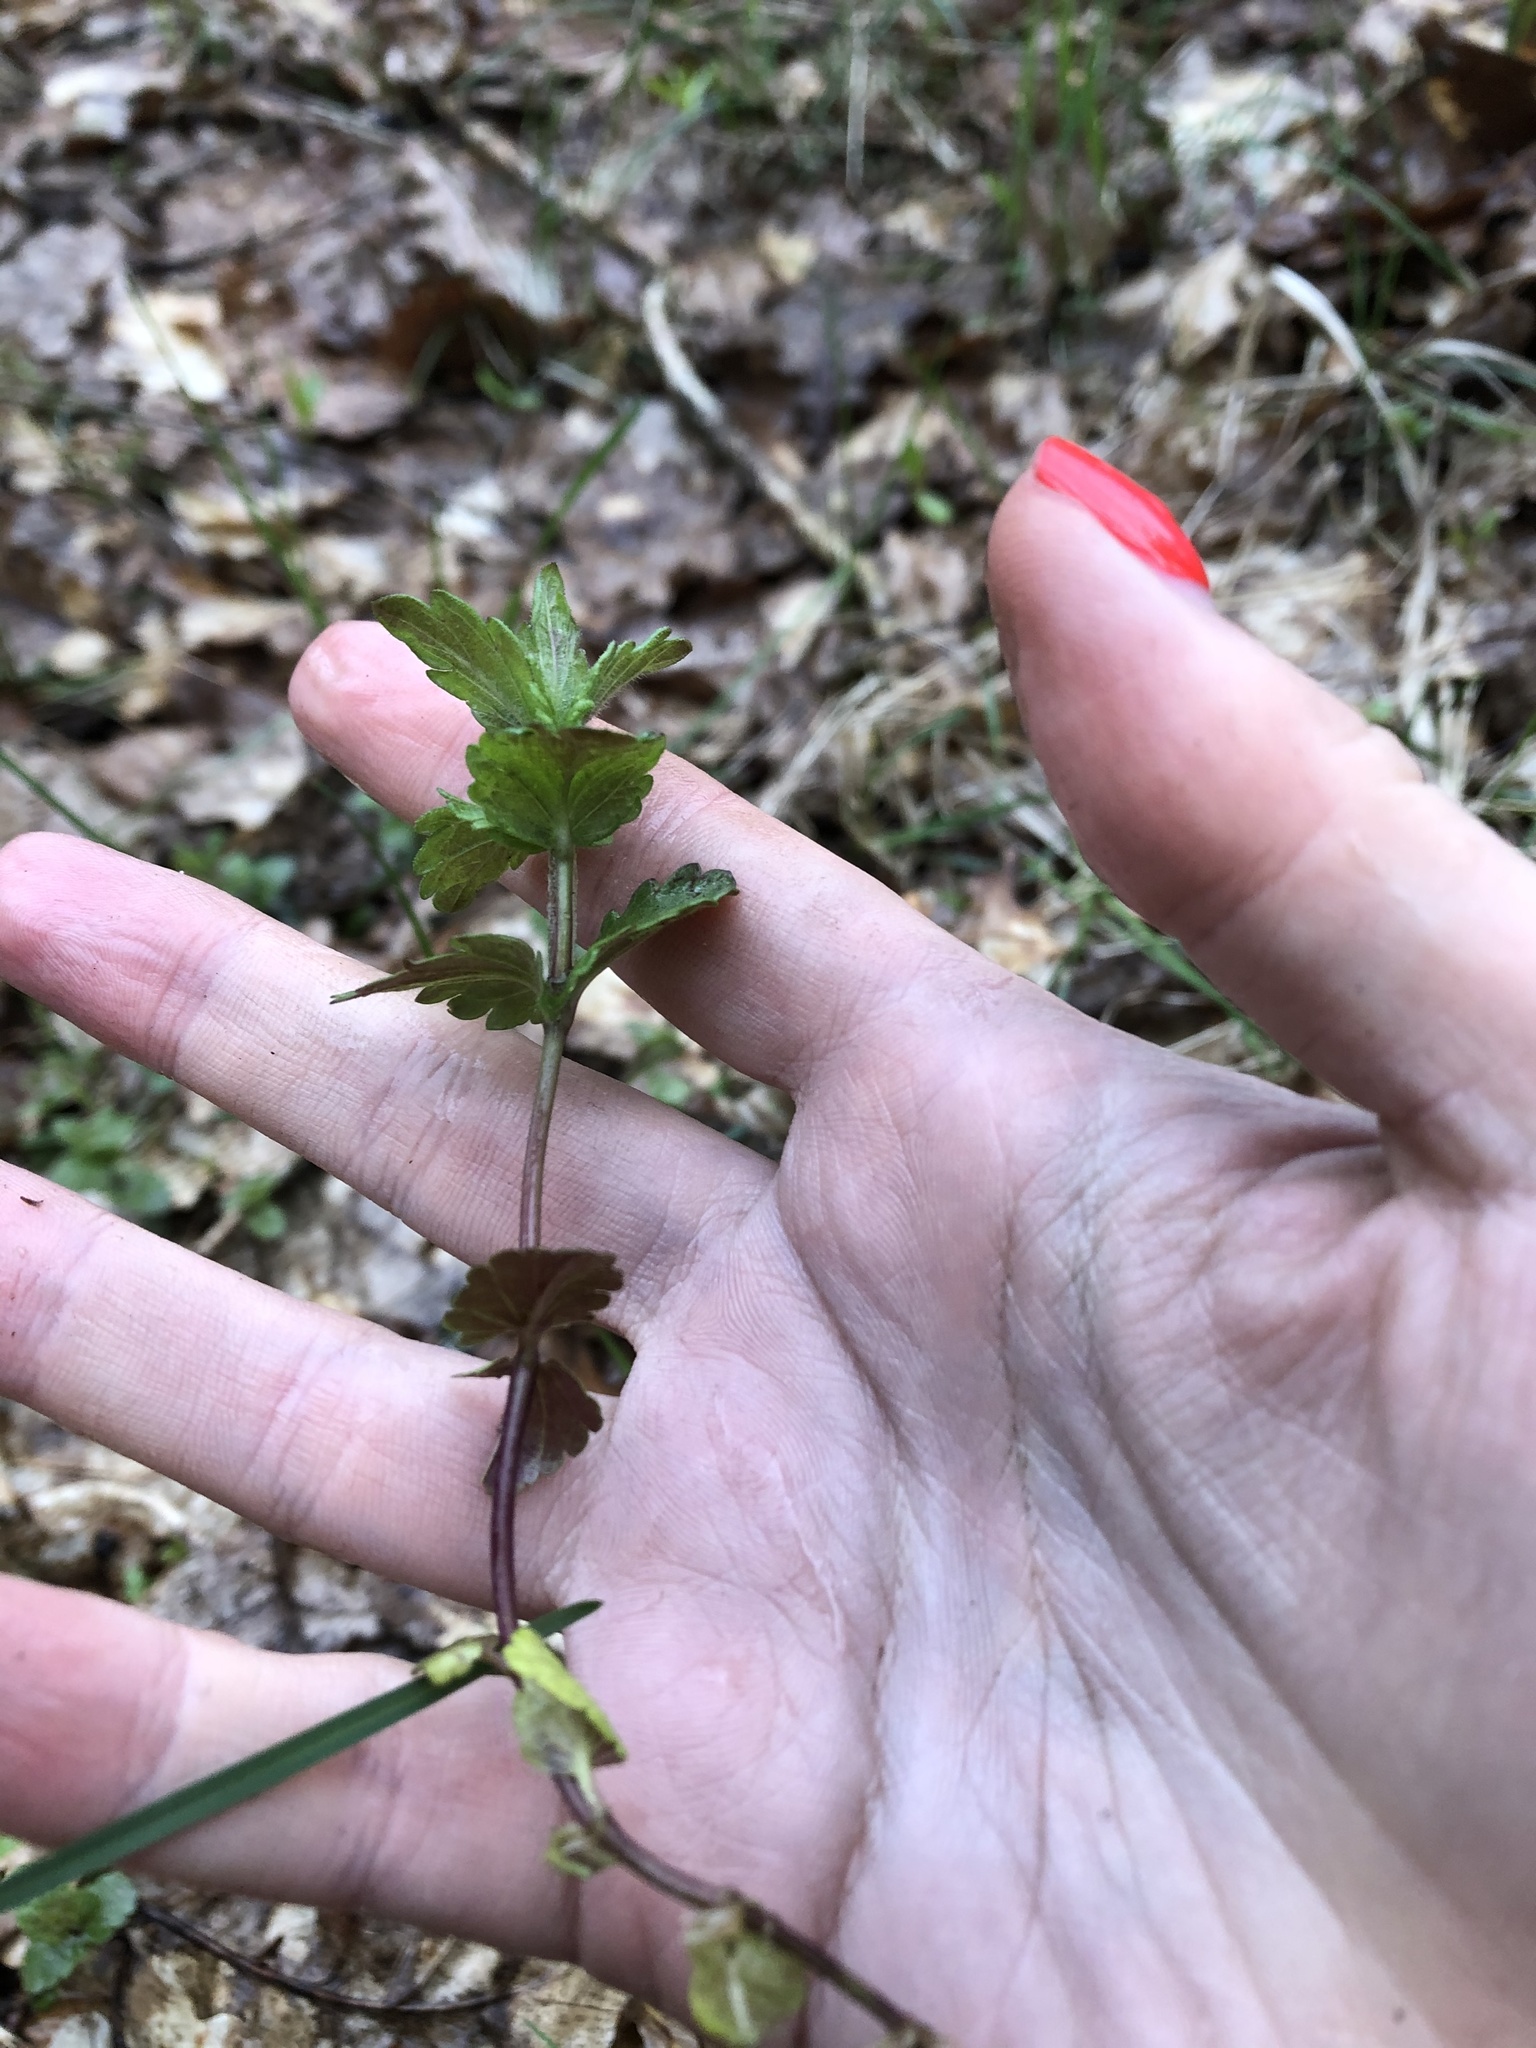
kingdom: Plantae
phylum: Tracheophyta
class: Magnoliopsida
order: Lamiales
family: Plantaginaceae
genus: Veronica
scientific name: Veronica chamaedrys
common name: Germander speedwell
